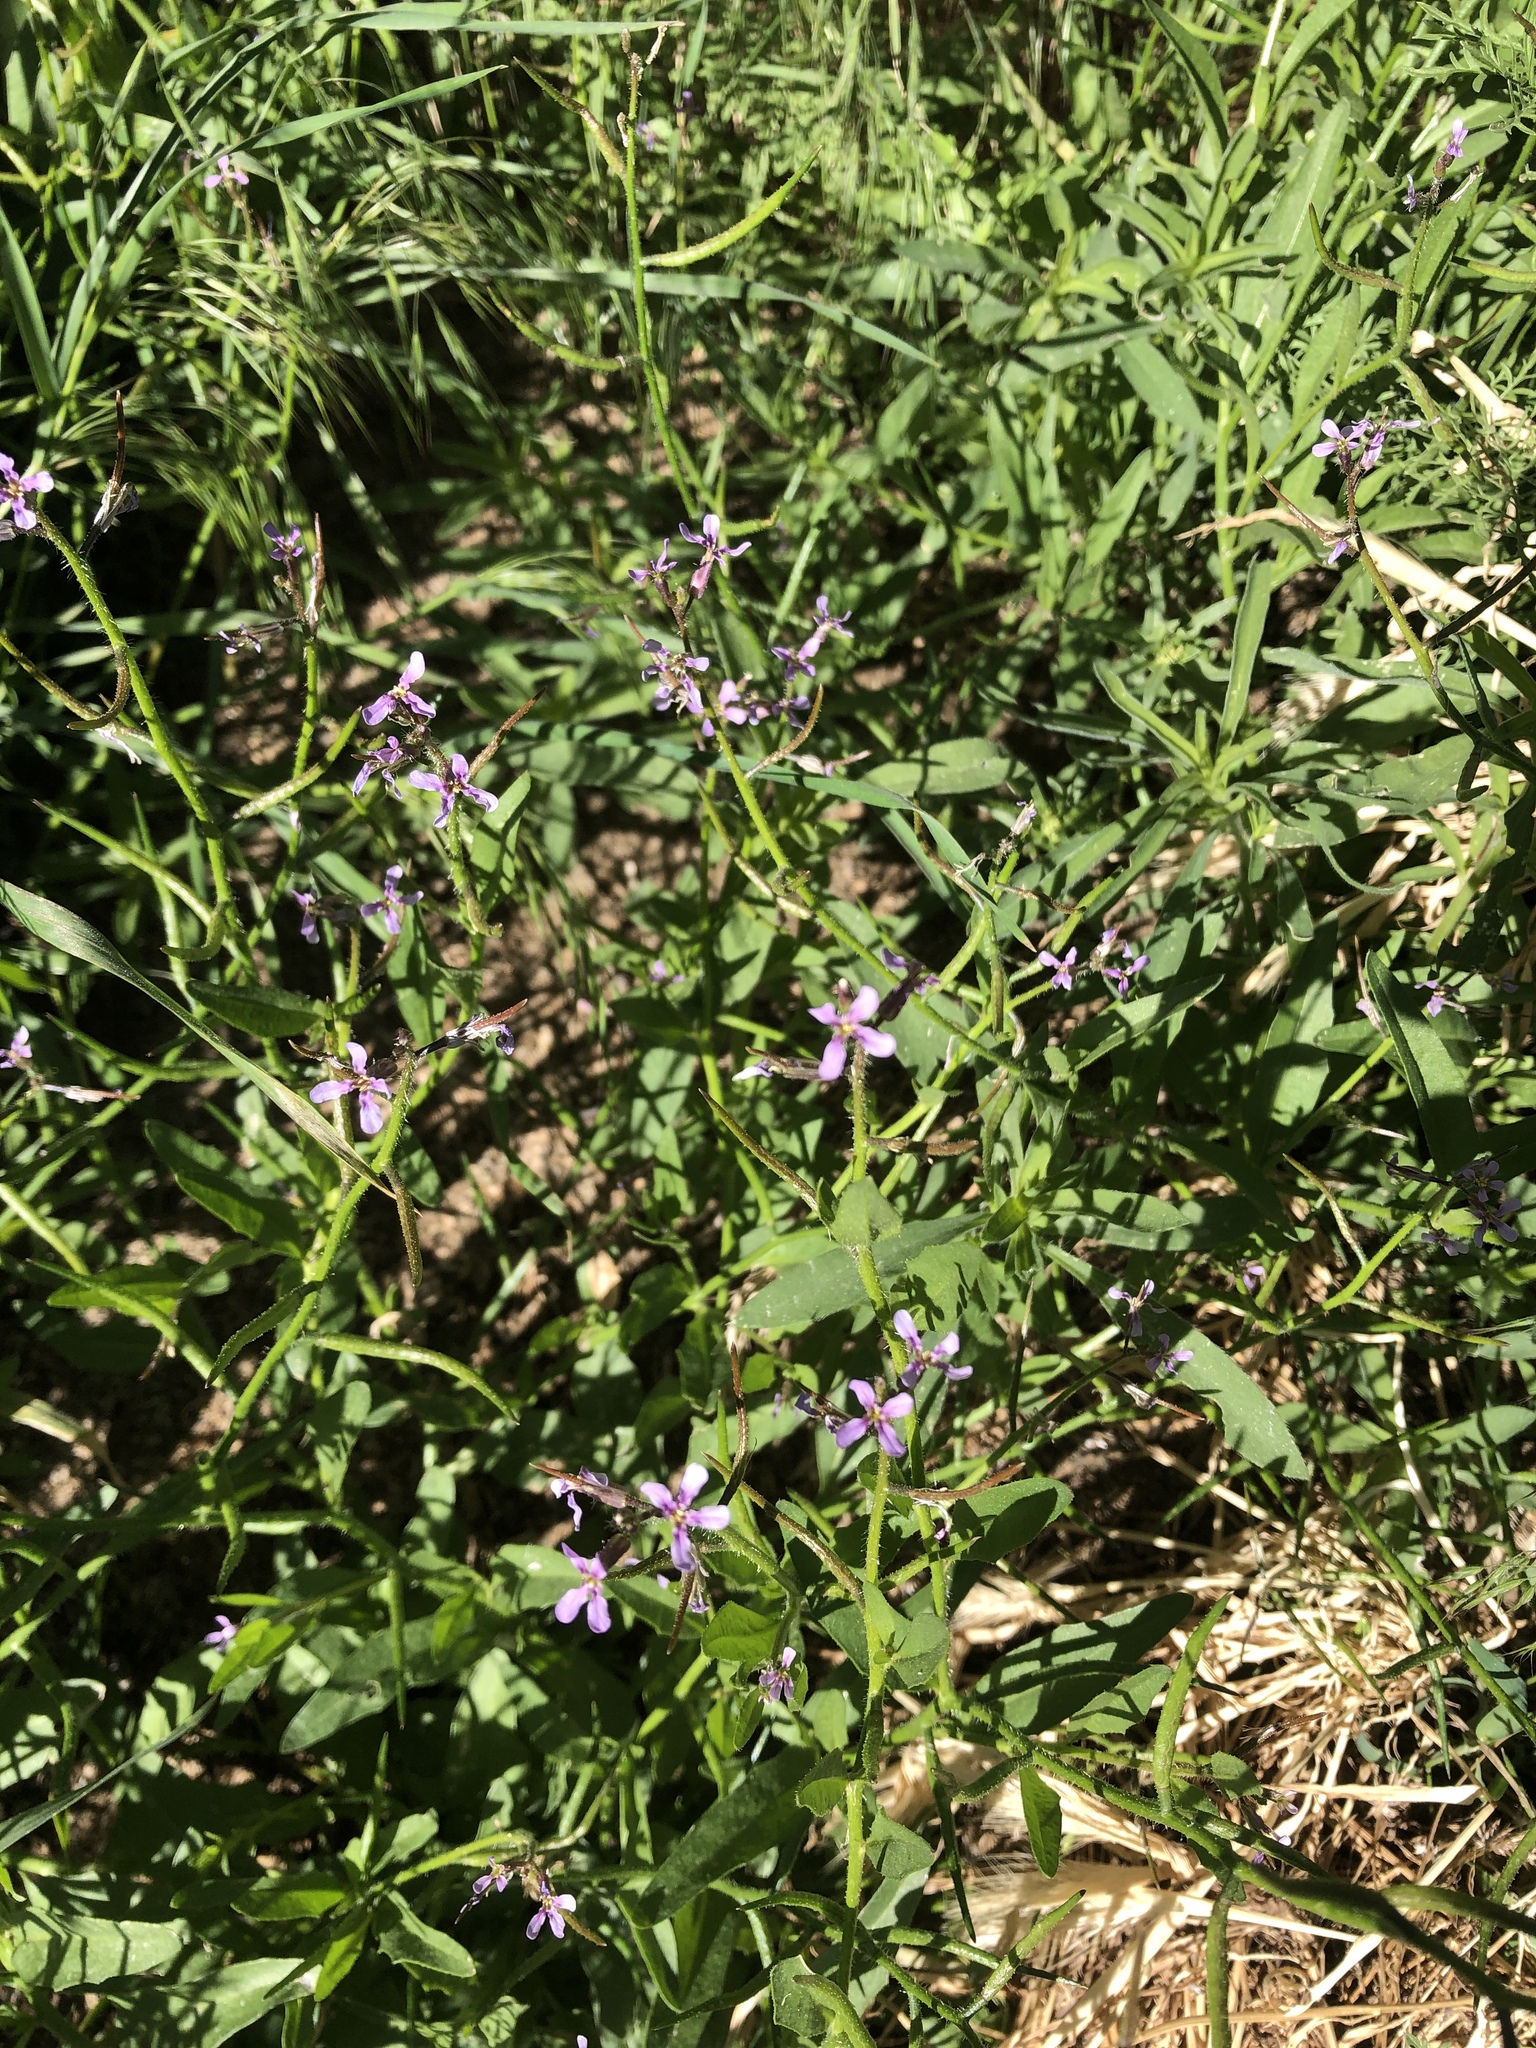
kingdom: Plantae
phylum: Tracheophyta
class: Magnoliopsida
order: Brassicales
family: Brassicaceae
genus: Chorispora
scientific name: Chorispora tenella
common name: Crossflower
